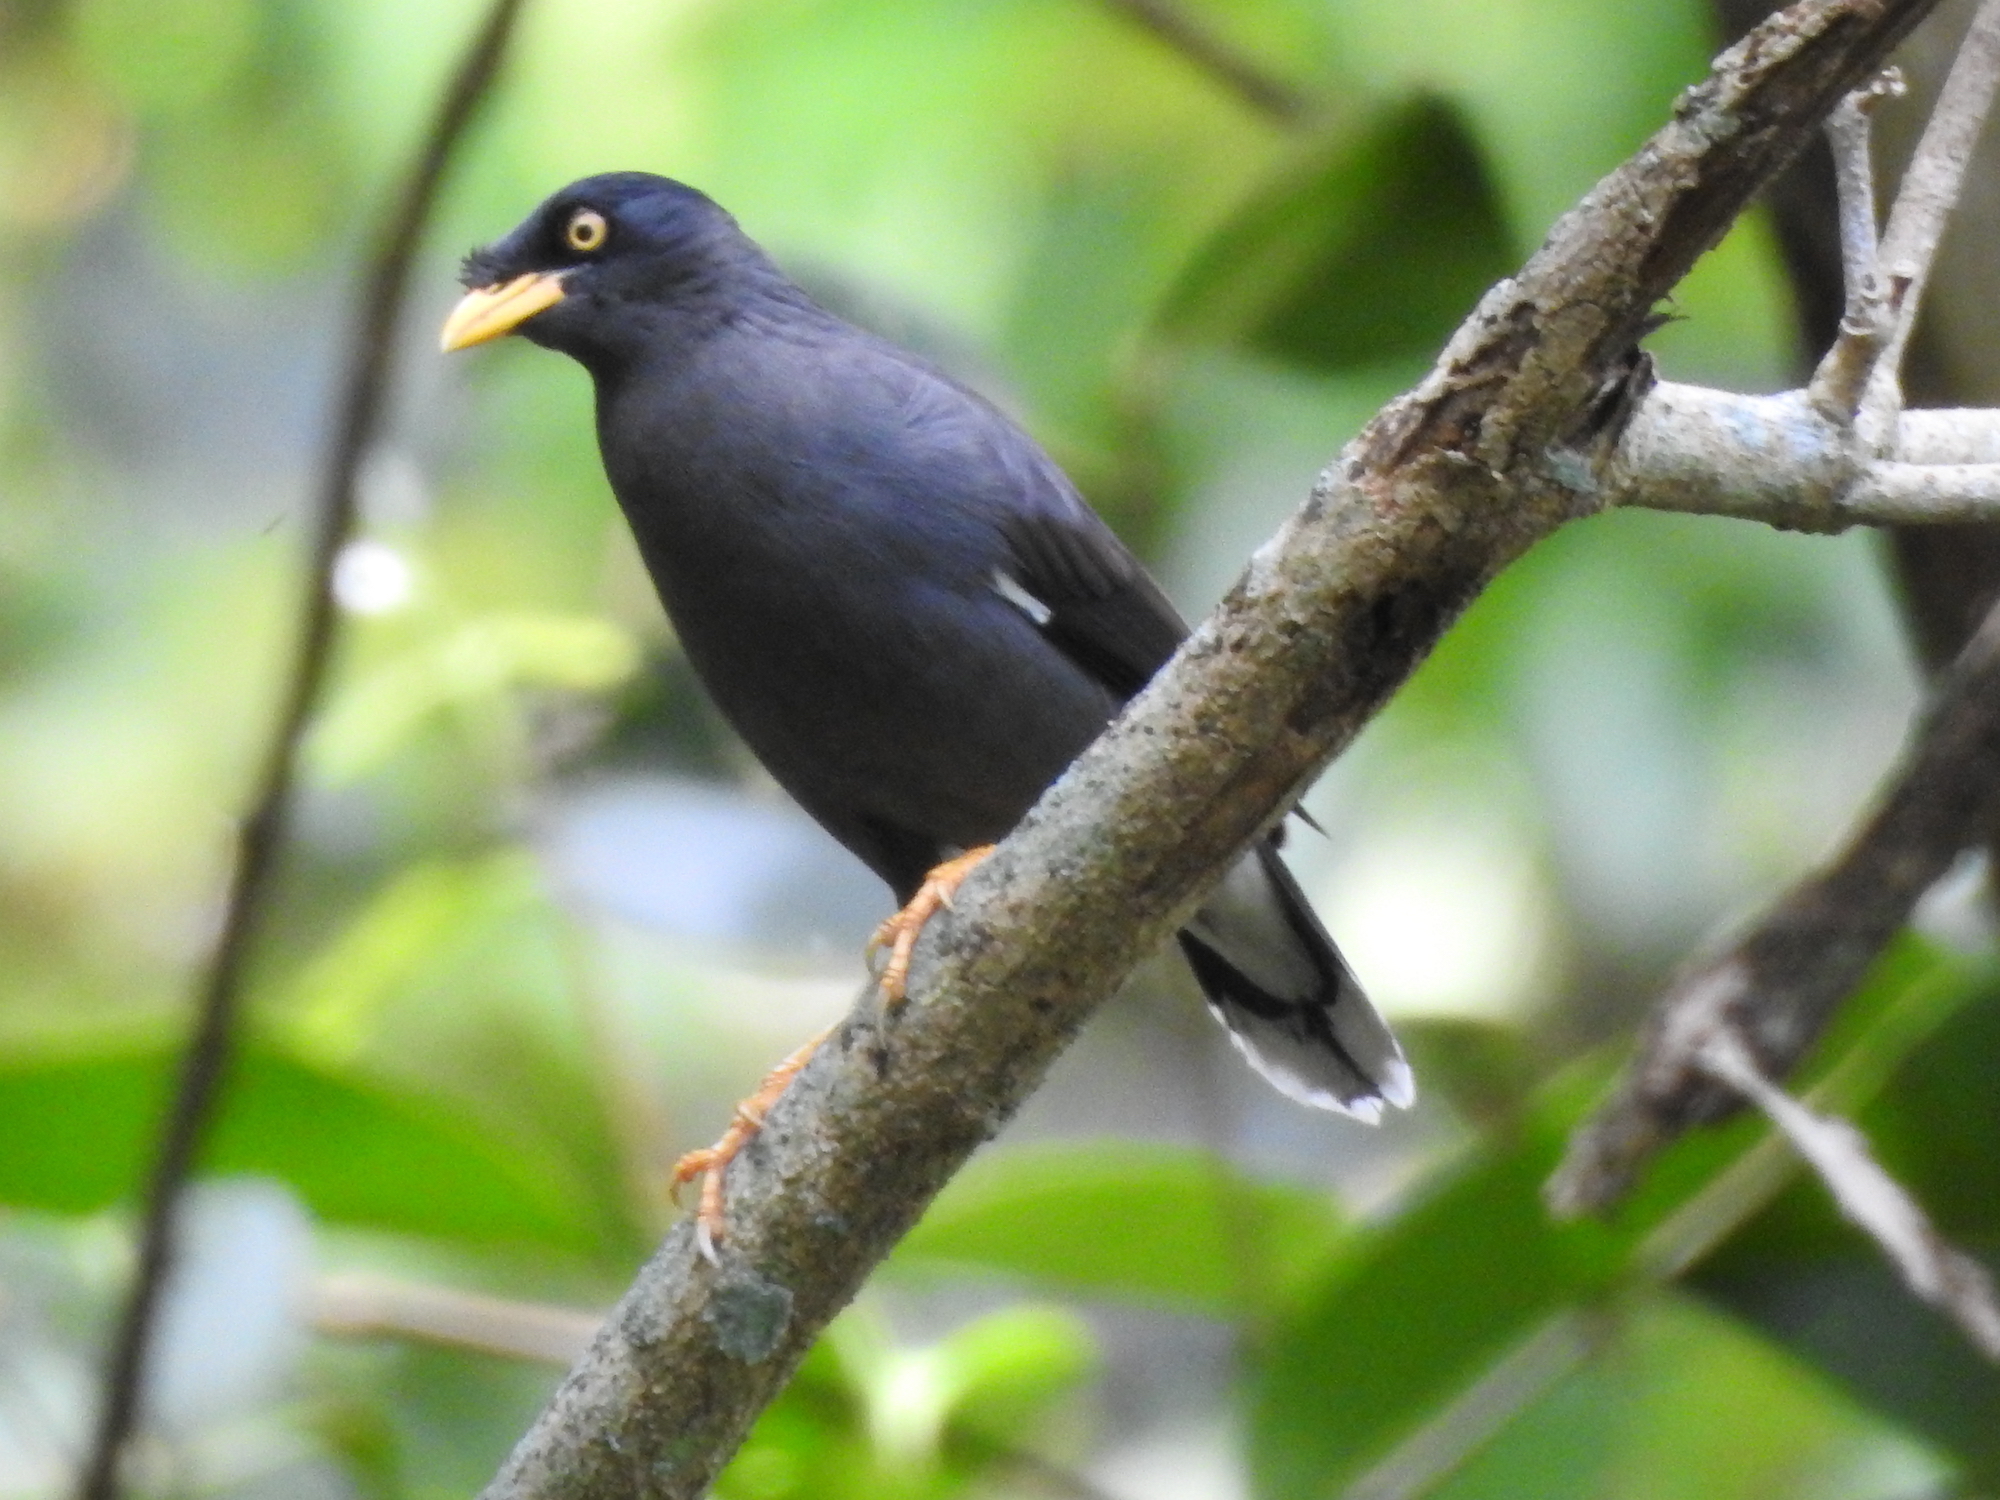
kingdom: Animalia
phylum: Chordata
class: Aves
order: Passeriformes
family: Sturnidae
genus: Acridotheres
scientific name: Acridotheres javanicus
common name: Javan myna
